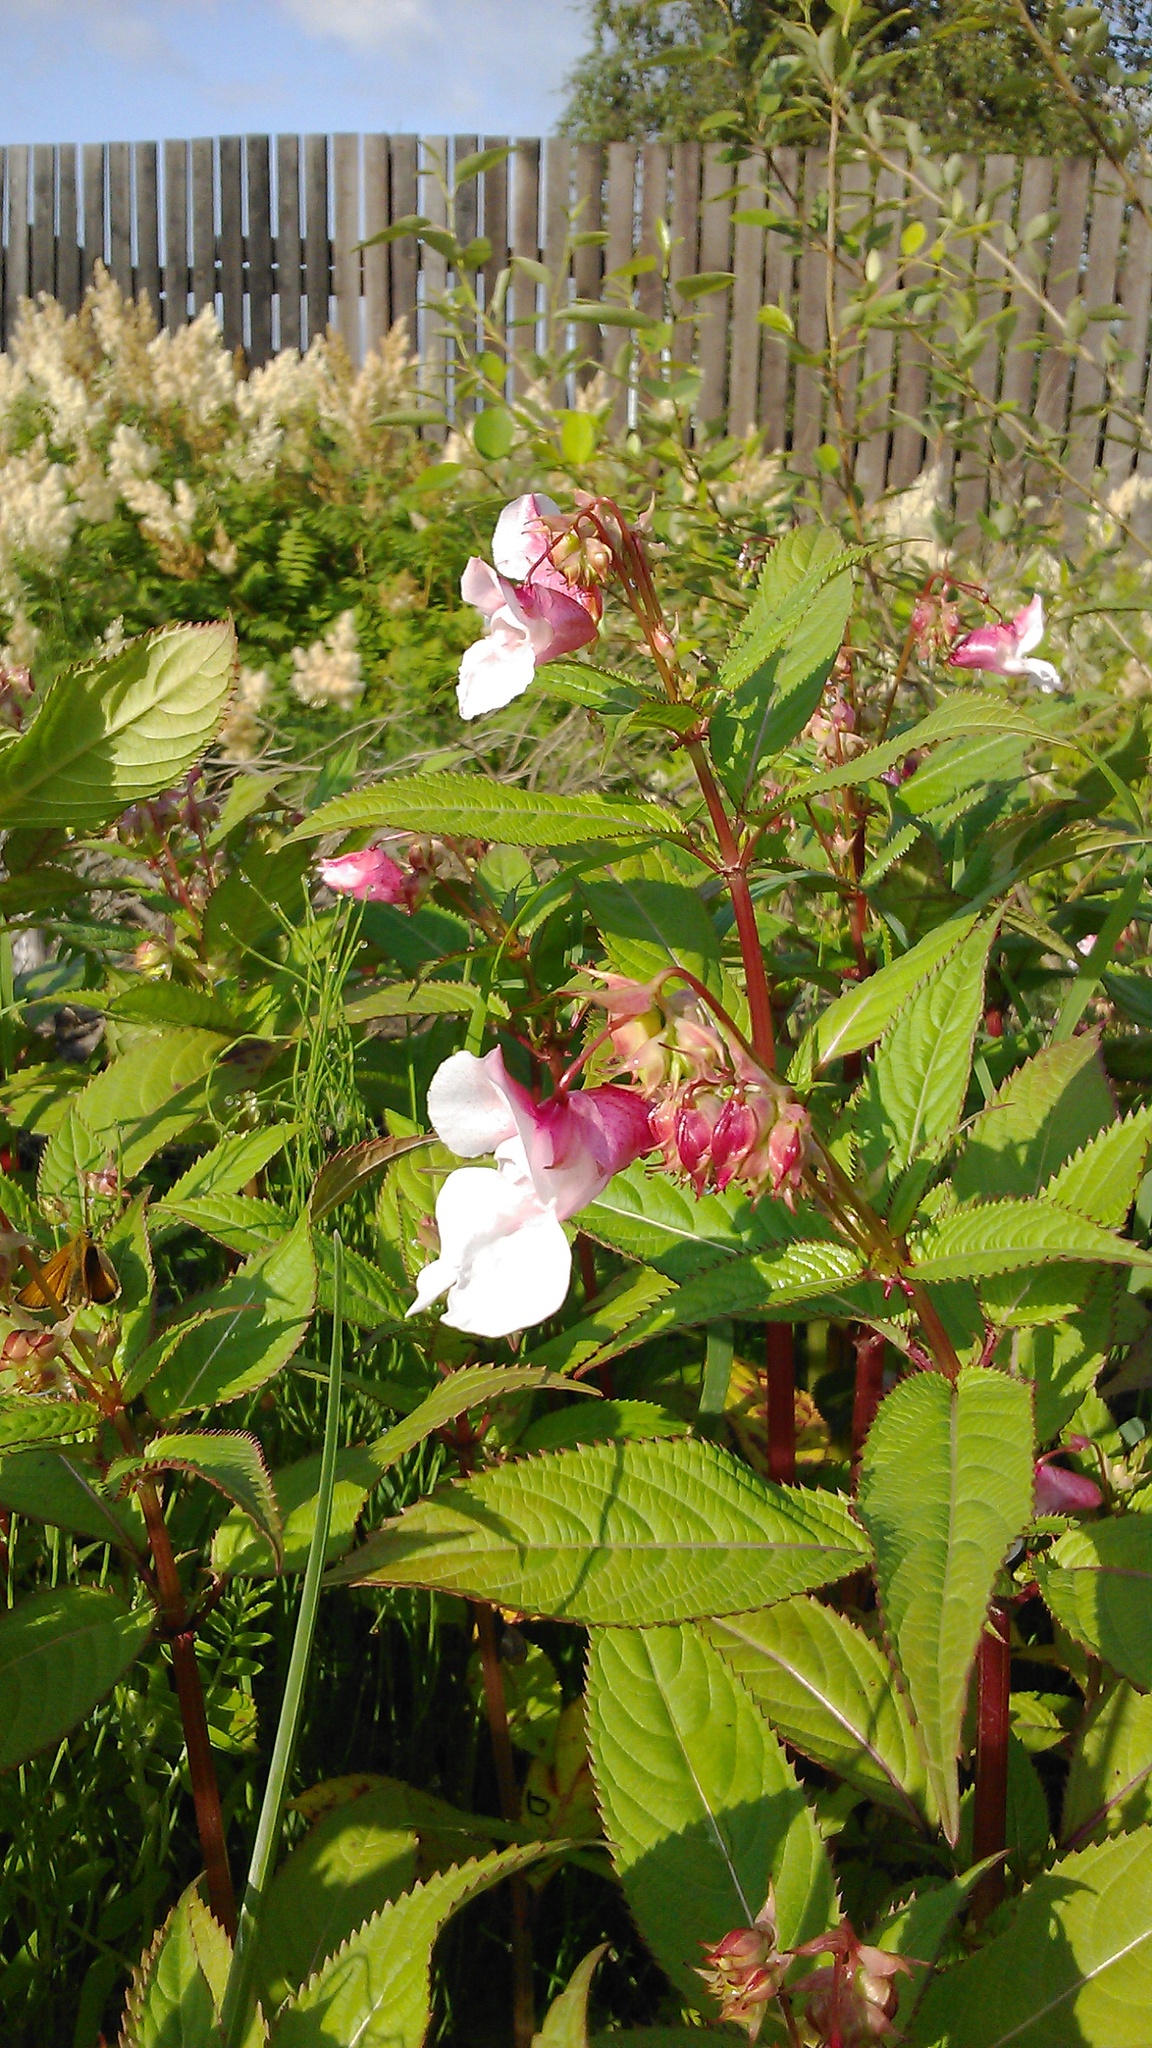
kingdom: Plantae
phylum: Tracheophyta
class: Magnoliopsida
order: Ericales
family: Balsaminaceae
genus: Impatiens
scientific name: Impatiens glandulifera
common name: Himalayan balsam
